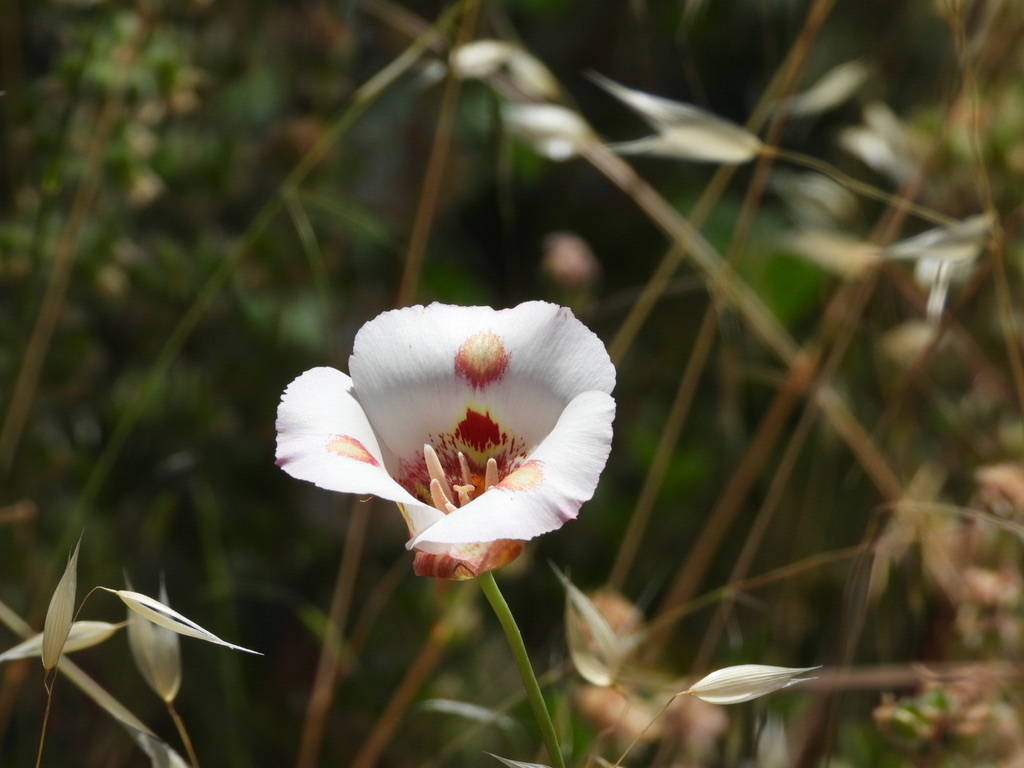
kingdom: Plantae
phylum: Tracheophyta
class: Liliopsida
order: Liliales
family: Liliaceae
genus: Calochortus
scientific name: Calochortus venustus
